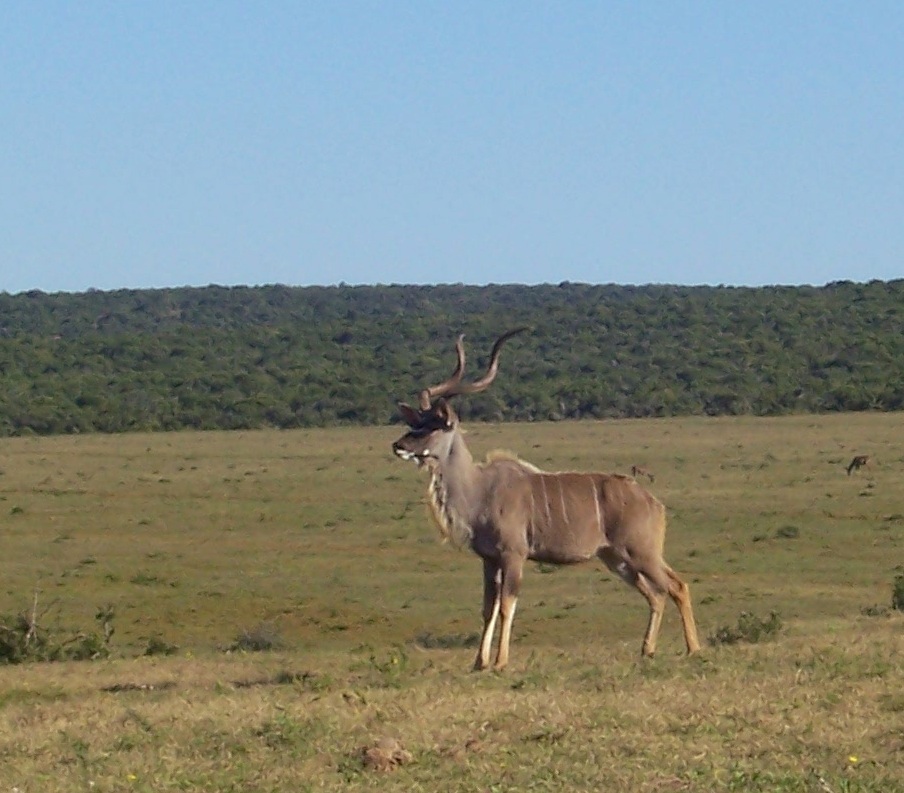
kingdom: Animalia
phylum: Chordata
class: Mammalia
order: Artiodactyla
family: Bovidae
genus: Tragelaphus
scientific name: Tragelaphus strepsiceros
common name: Greater kudu
